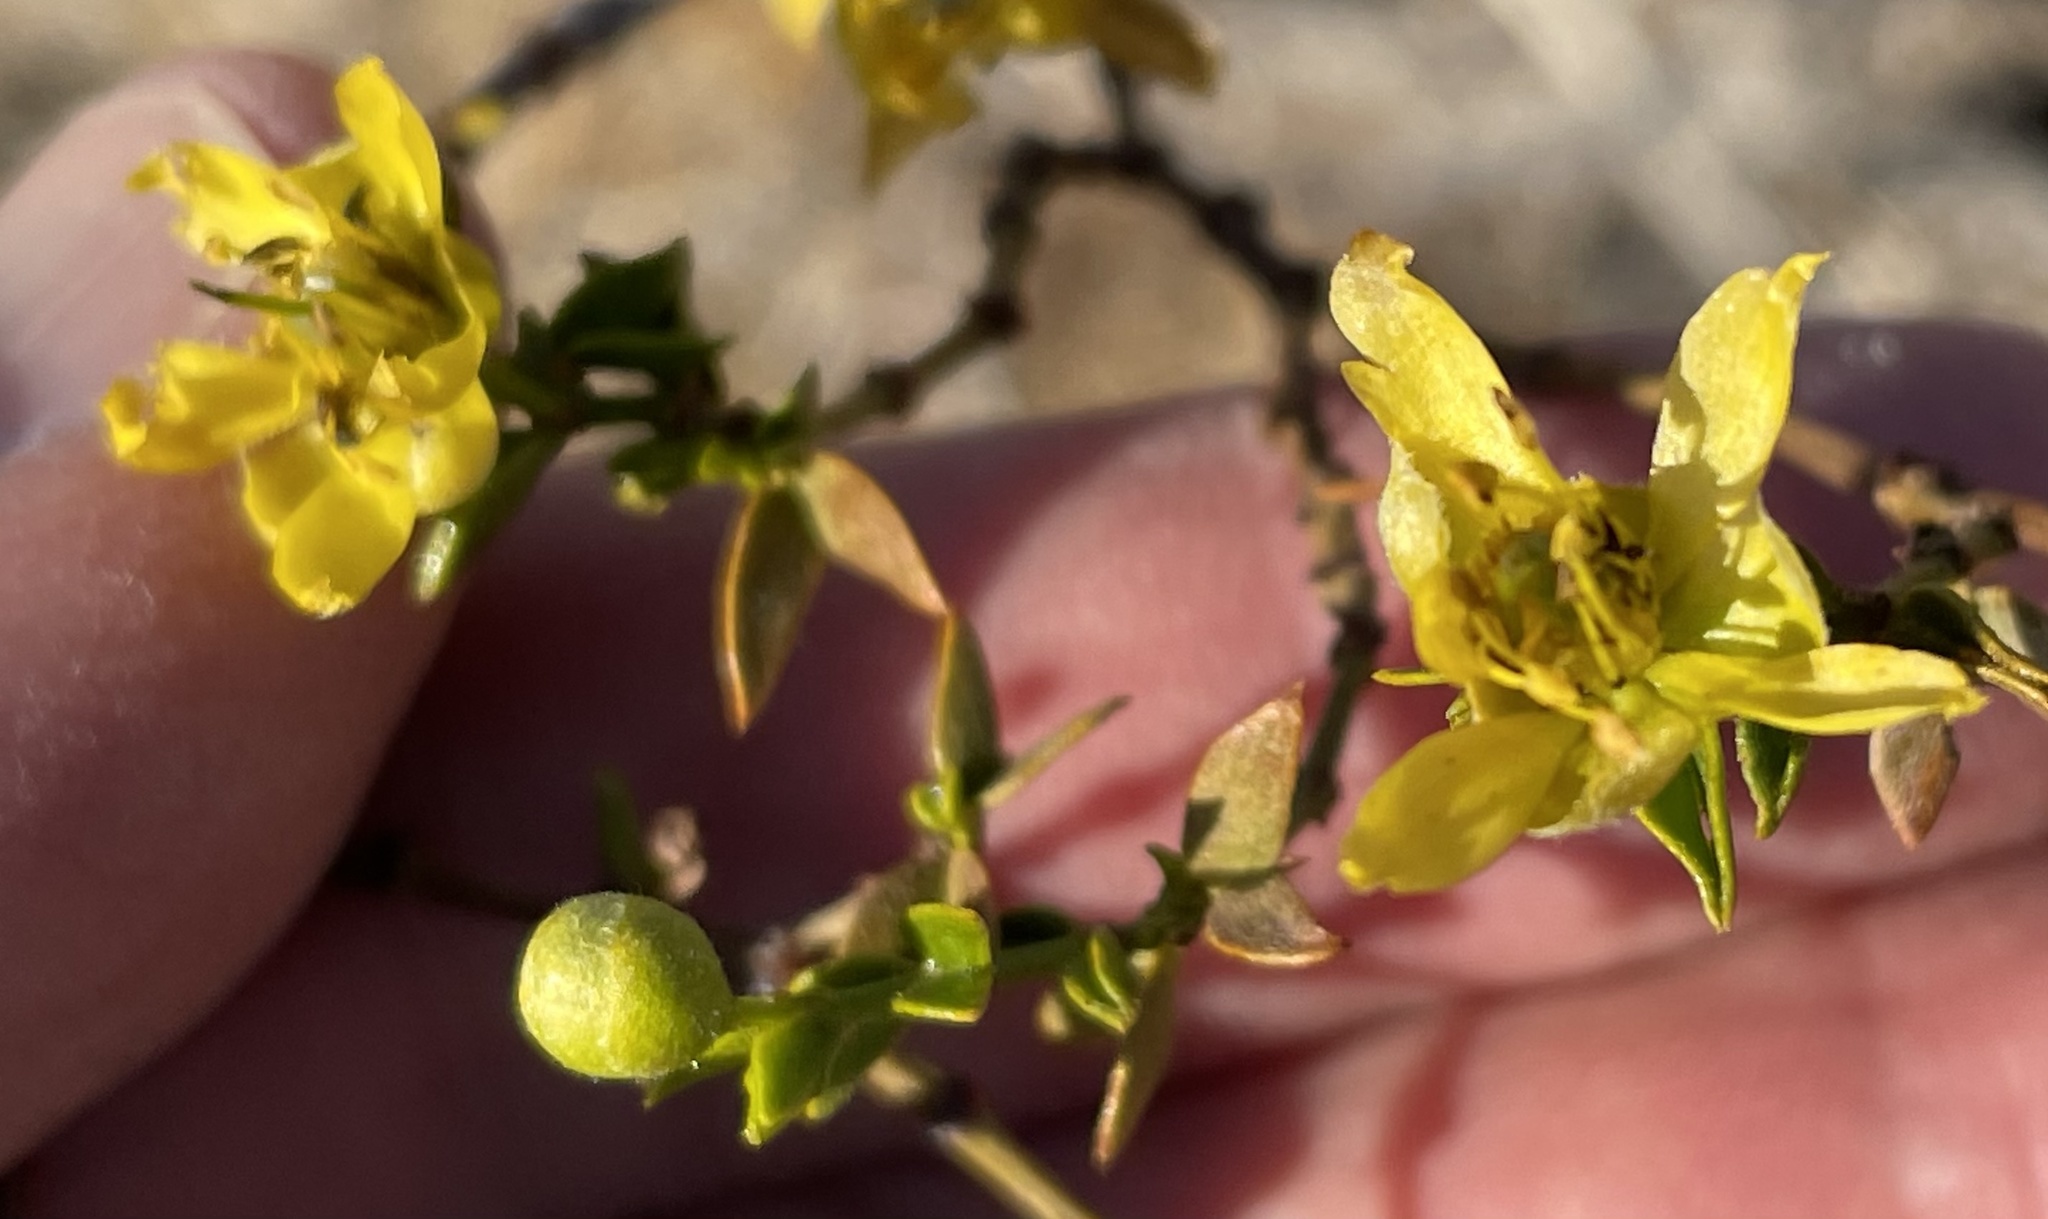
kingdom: Plantae
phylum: Tracheophyta
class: Magnoliopsida
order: Zygophyllales
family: Zygophyllaceae
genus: Larrea
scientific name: Larrea tridentata
